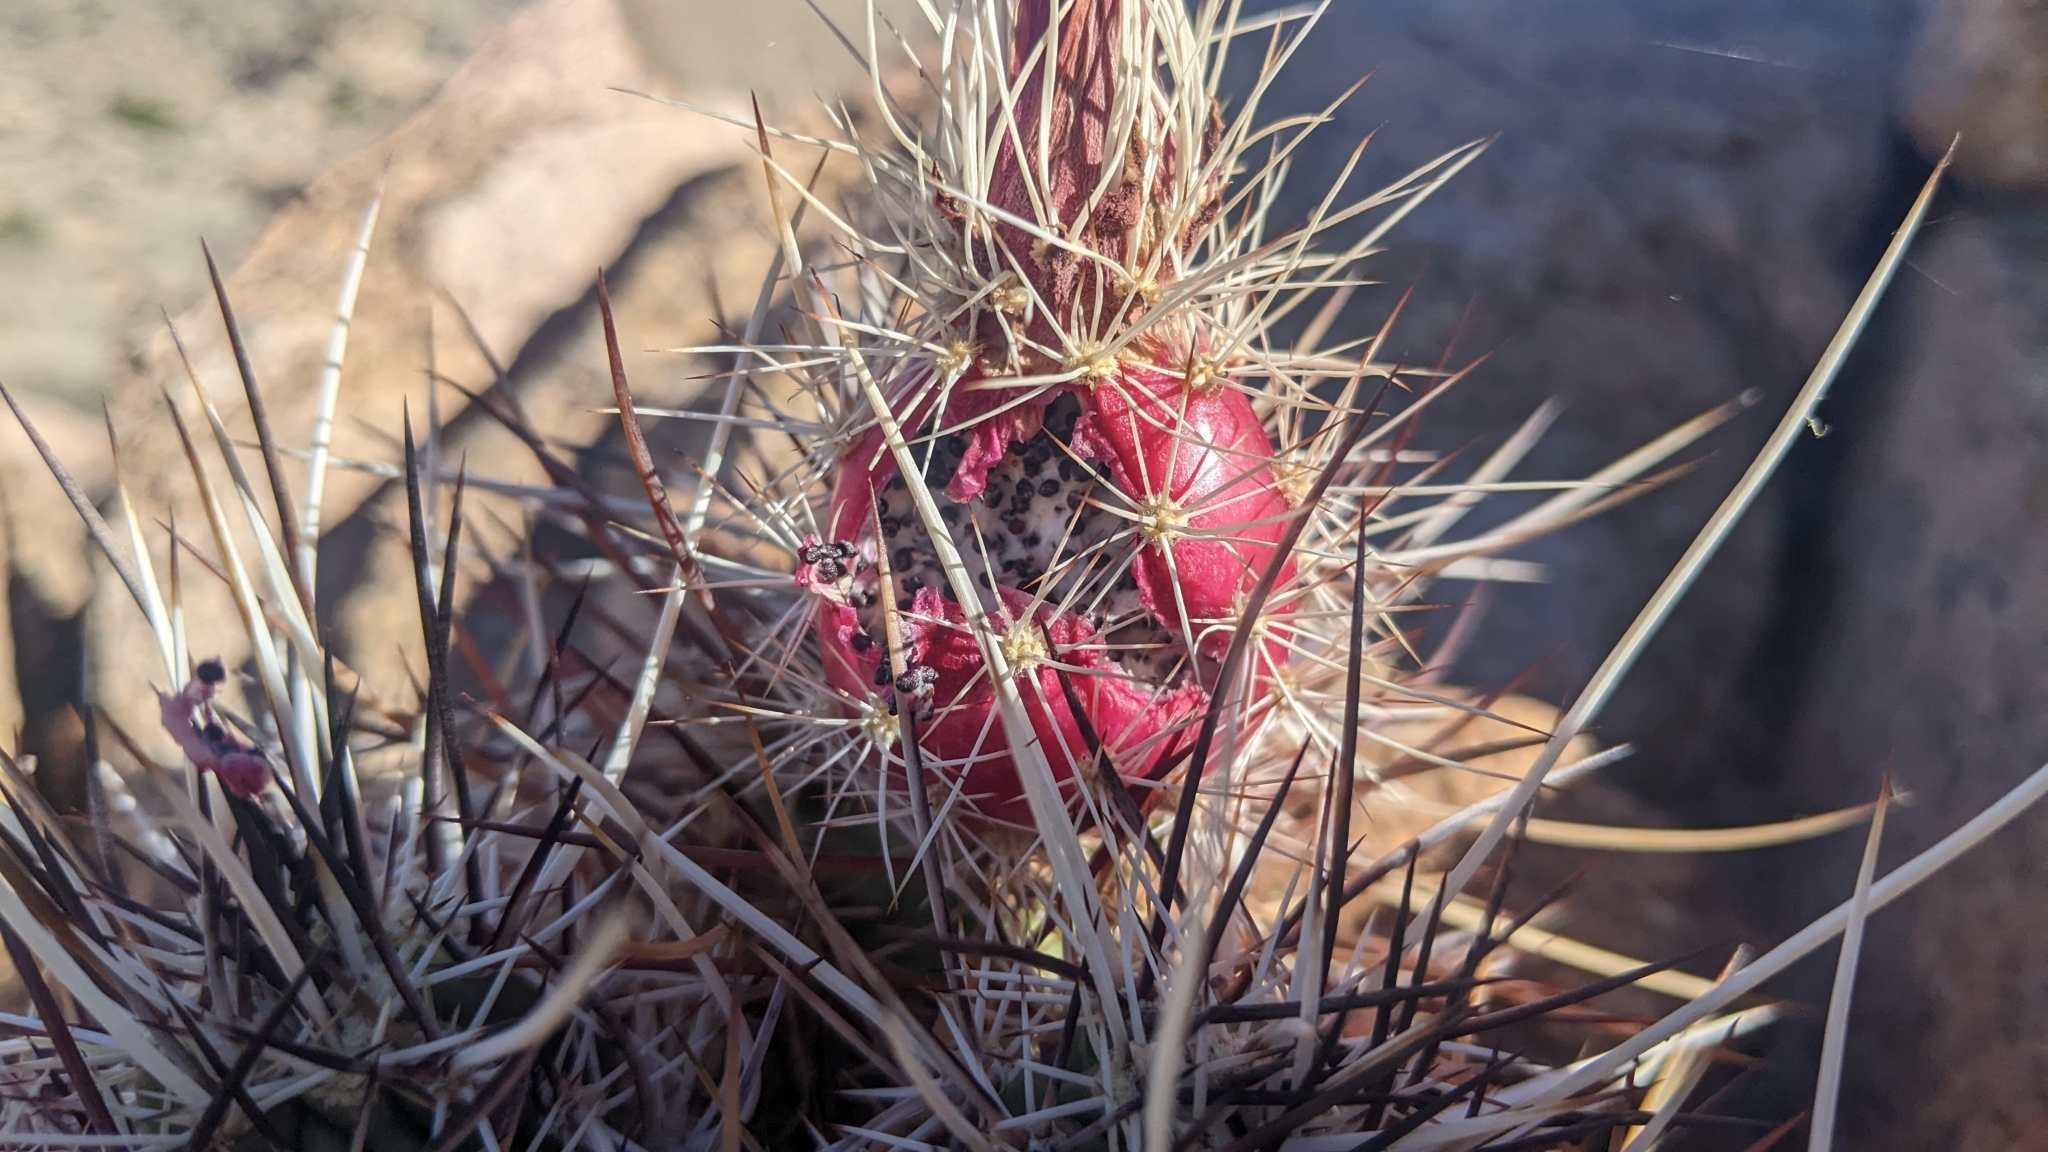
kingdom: Plantae
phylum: Tracheophyta
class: Magnoliopsida
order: Caryophyllales
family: Cactaceae
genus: Echinocereus
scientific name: Echinocereus engelmannii
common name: Engelmann's hedgehog cactus
